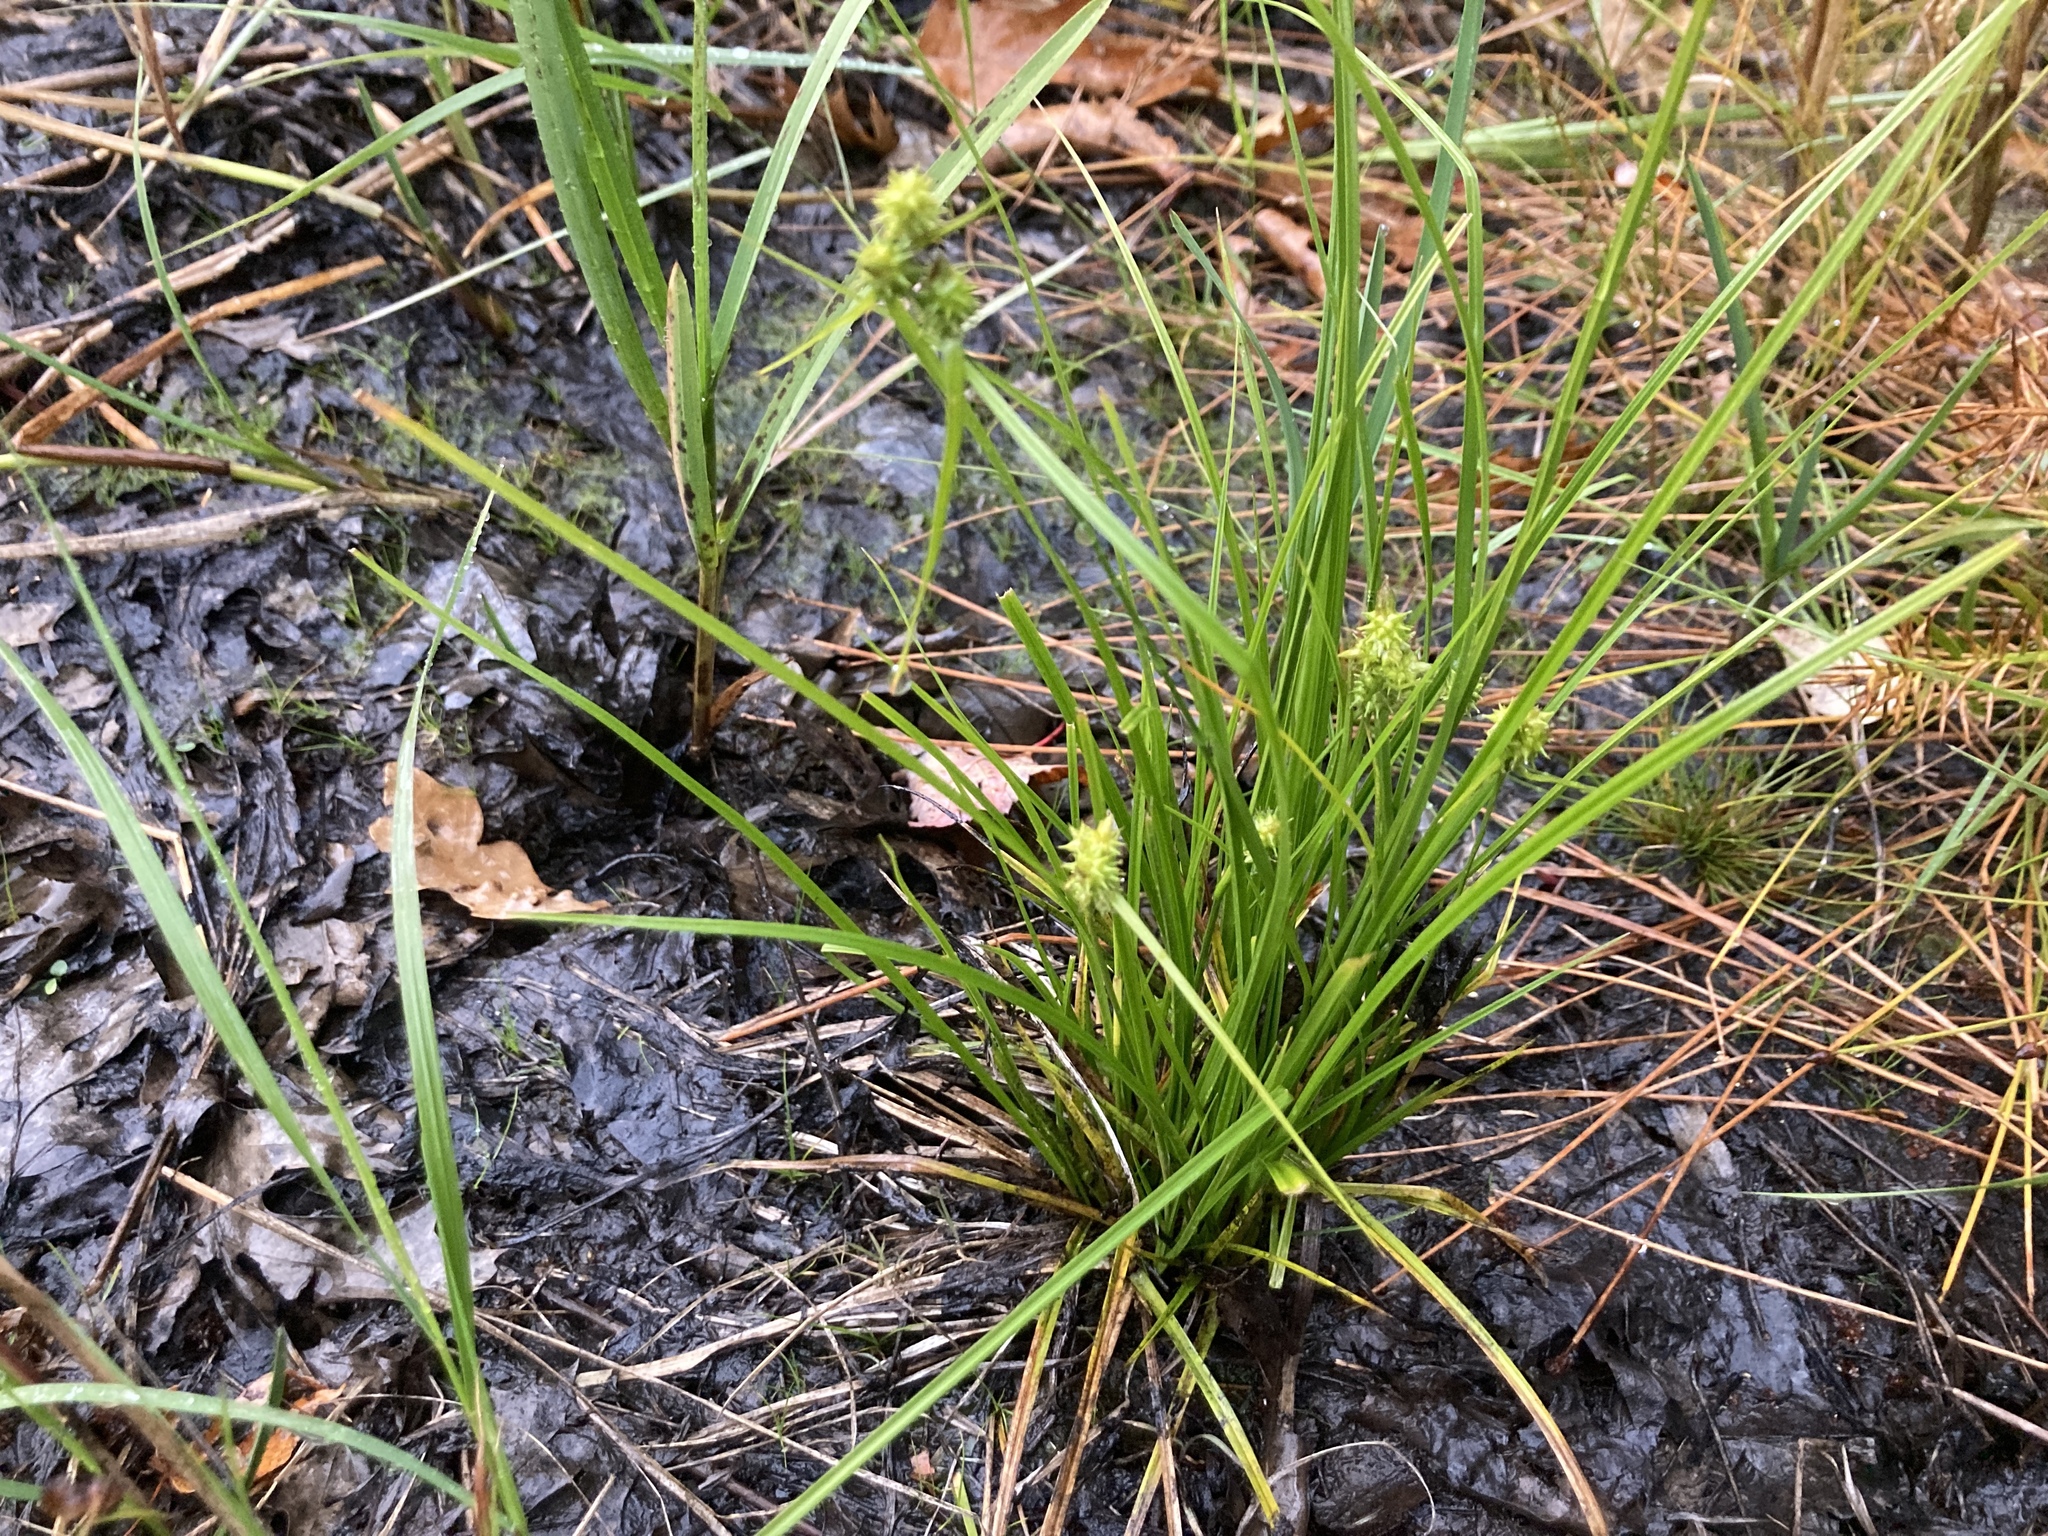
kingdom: Plantae
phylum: Tracheophyta
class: Liliopsida
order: Poales
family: Cyperaceae
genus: Carex
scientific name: Carex
